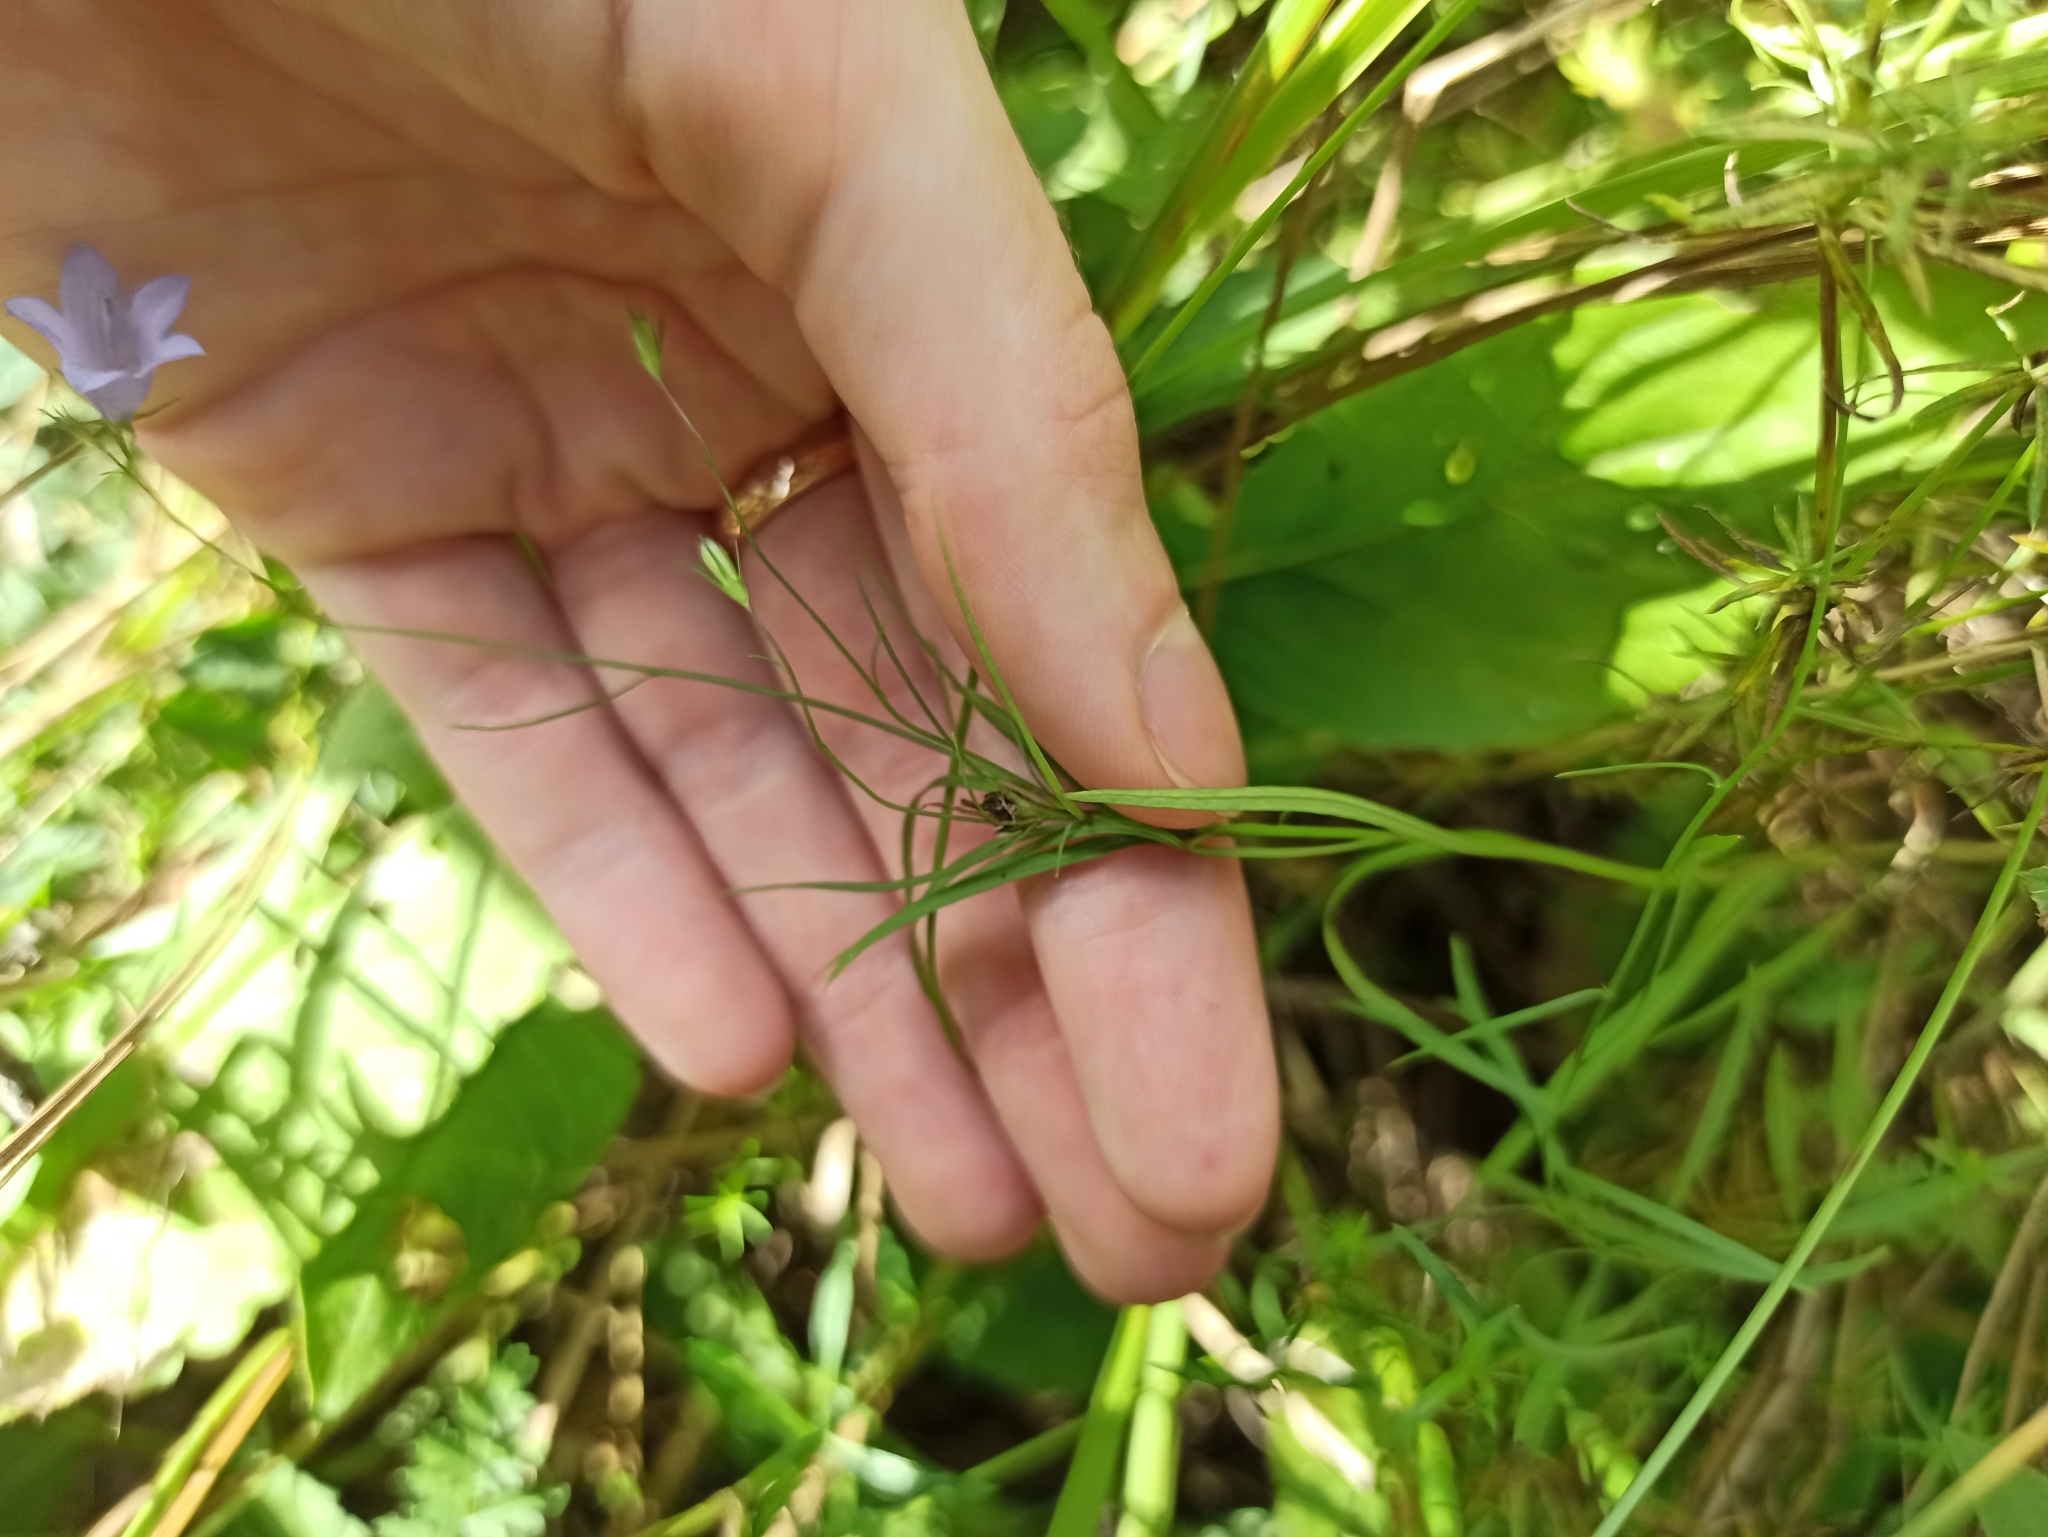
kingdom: Plantae
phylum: Tracheophyta
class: Magnoliopsida
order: Asterales
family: Campanulaceae
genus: Campanula
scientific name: Campanula rotundifolia
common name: Harebell
